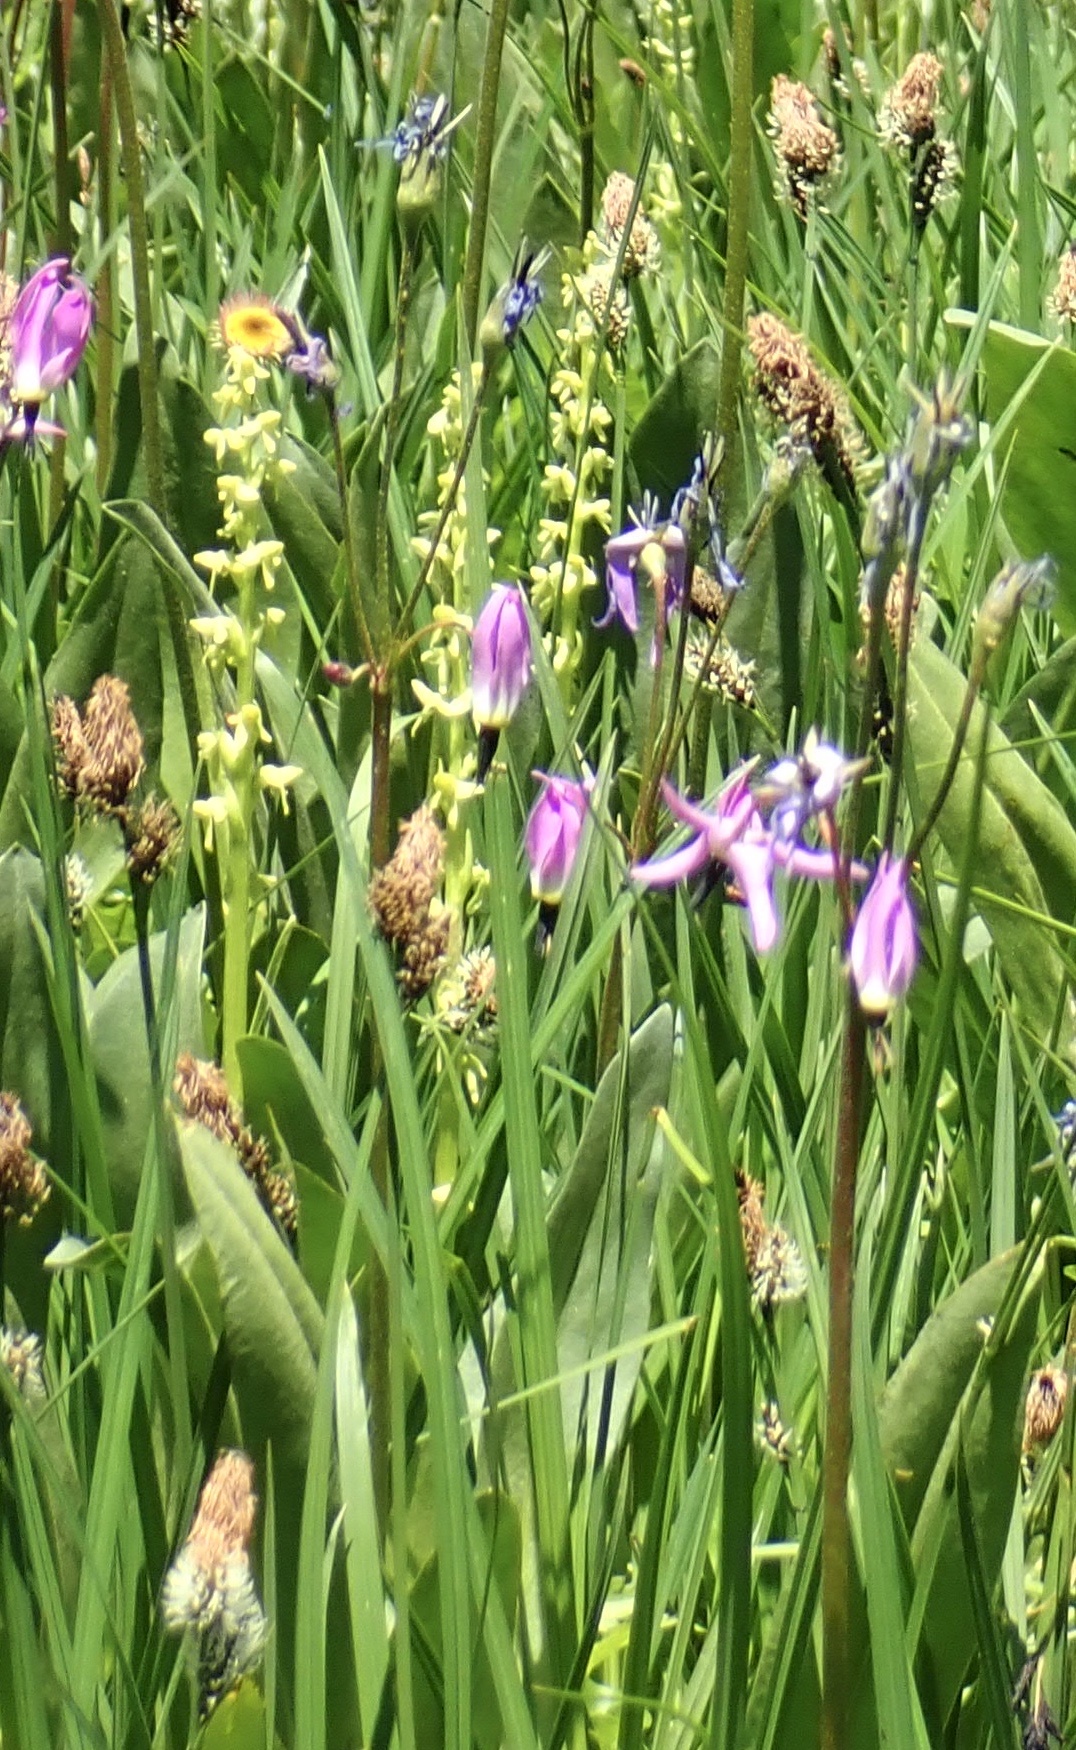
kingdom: Plantae
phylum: Tracheophyta
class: Liliopsida
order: Asparagales
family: Orchidaceae
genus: Platanthera
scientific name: Platanthera stricta
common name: Slender bog orchid
